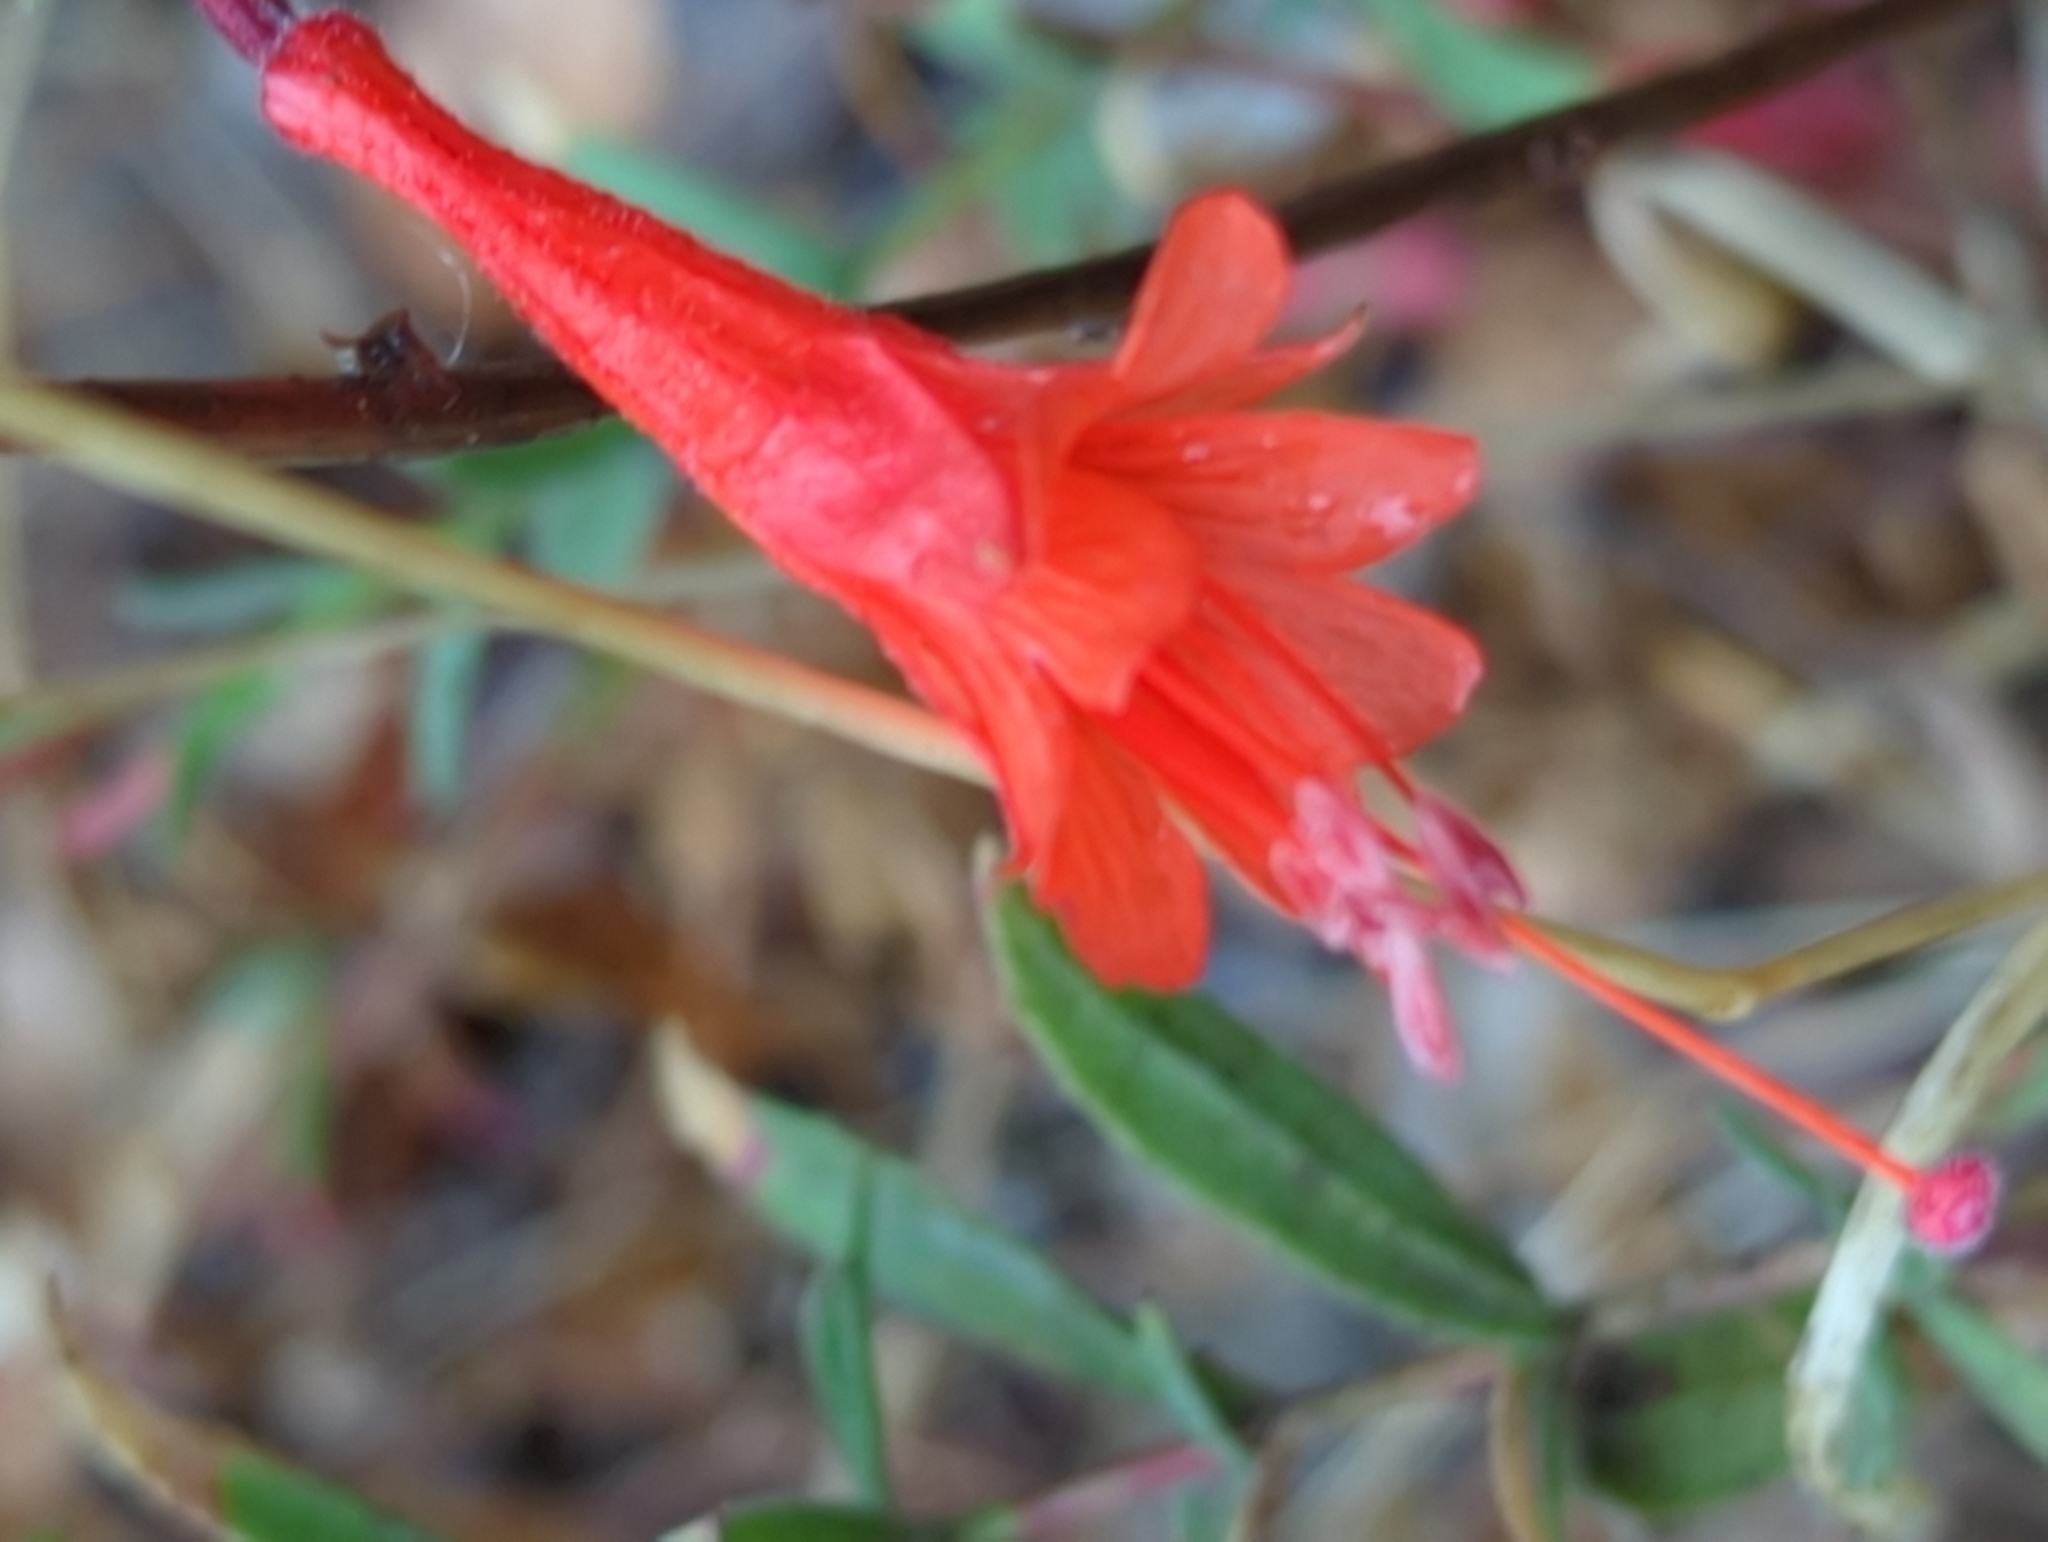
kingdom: Plantae
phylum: Tracheophyta
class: Magnoliopsida
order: Myrtales
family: Onagraceae
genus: Epilobium
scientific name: Epilobium canum
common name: California-fuchsia
